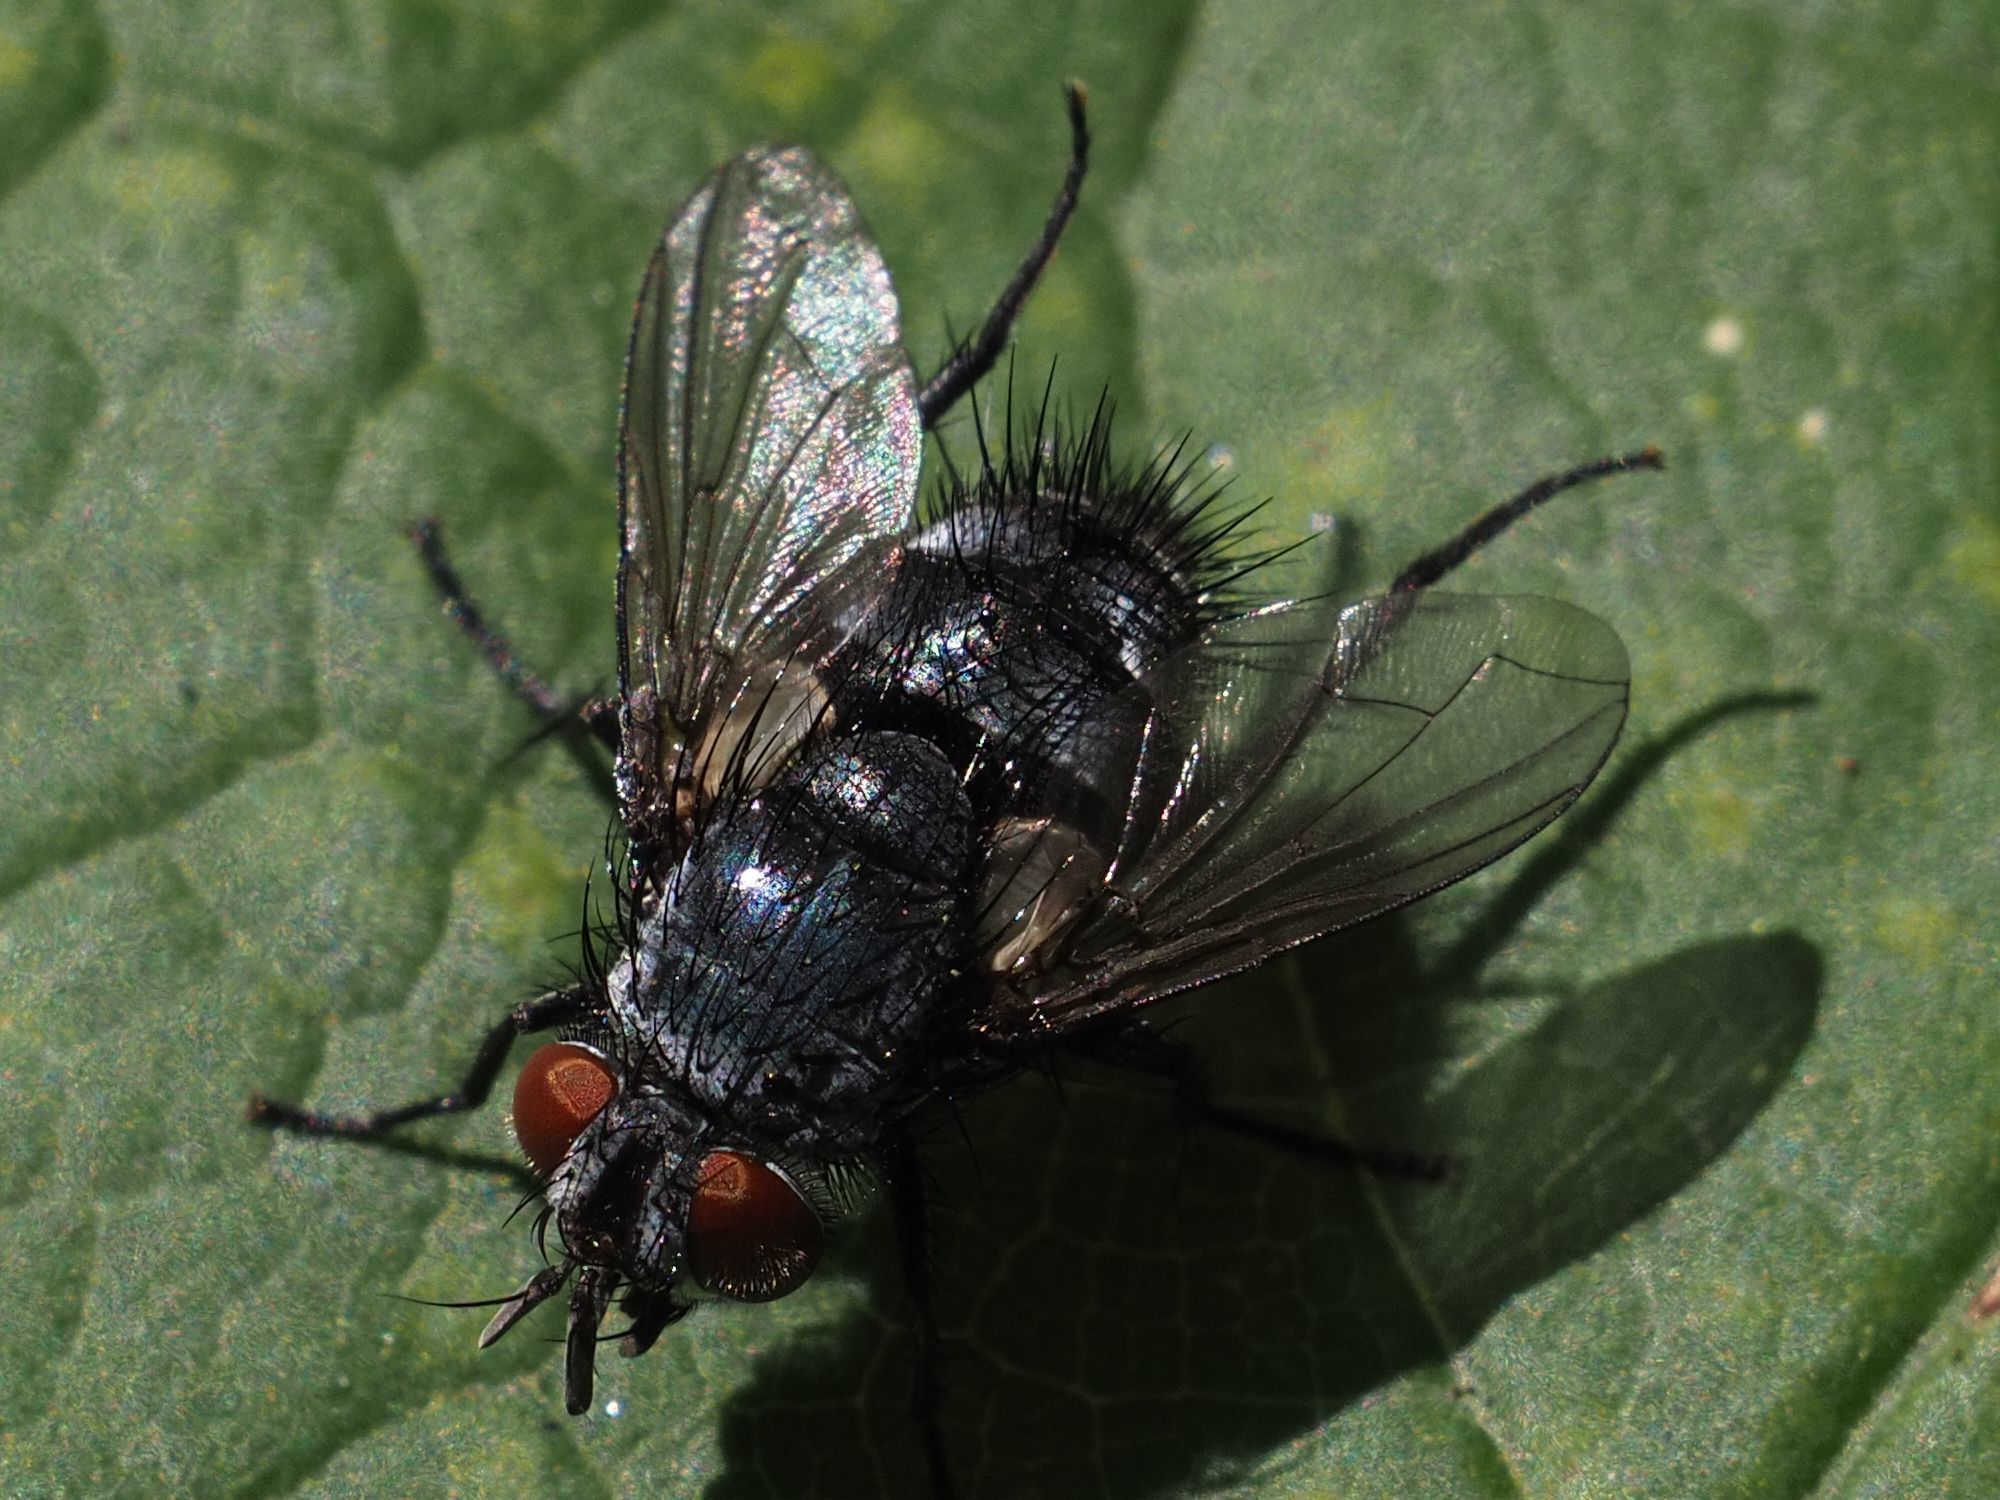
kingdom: Animalia
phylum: Arthropoda
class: Insecta
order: Diptera
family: Tachinidae
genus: Epicampocera
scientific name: Epicampocera succincta
